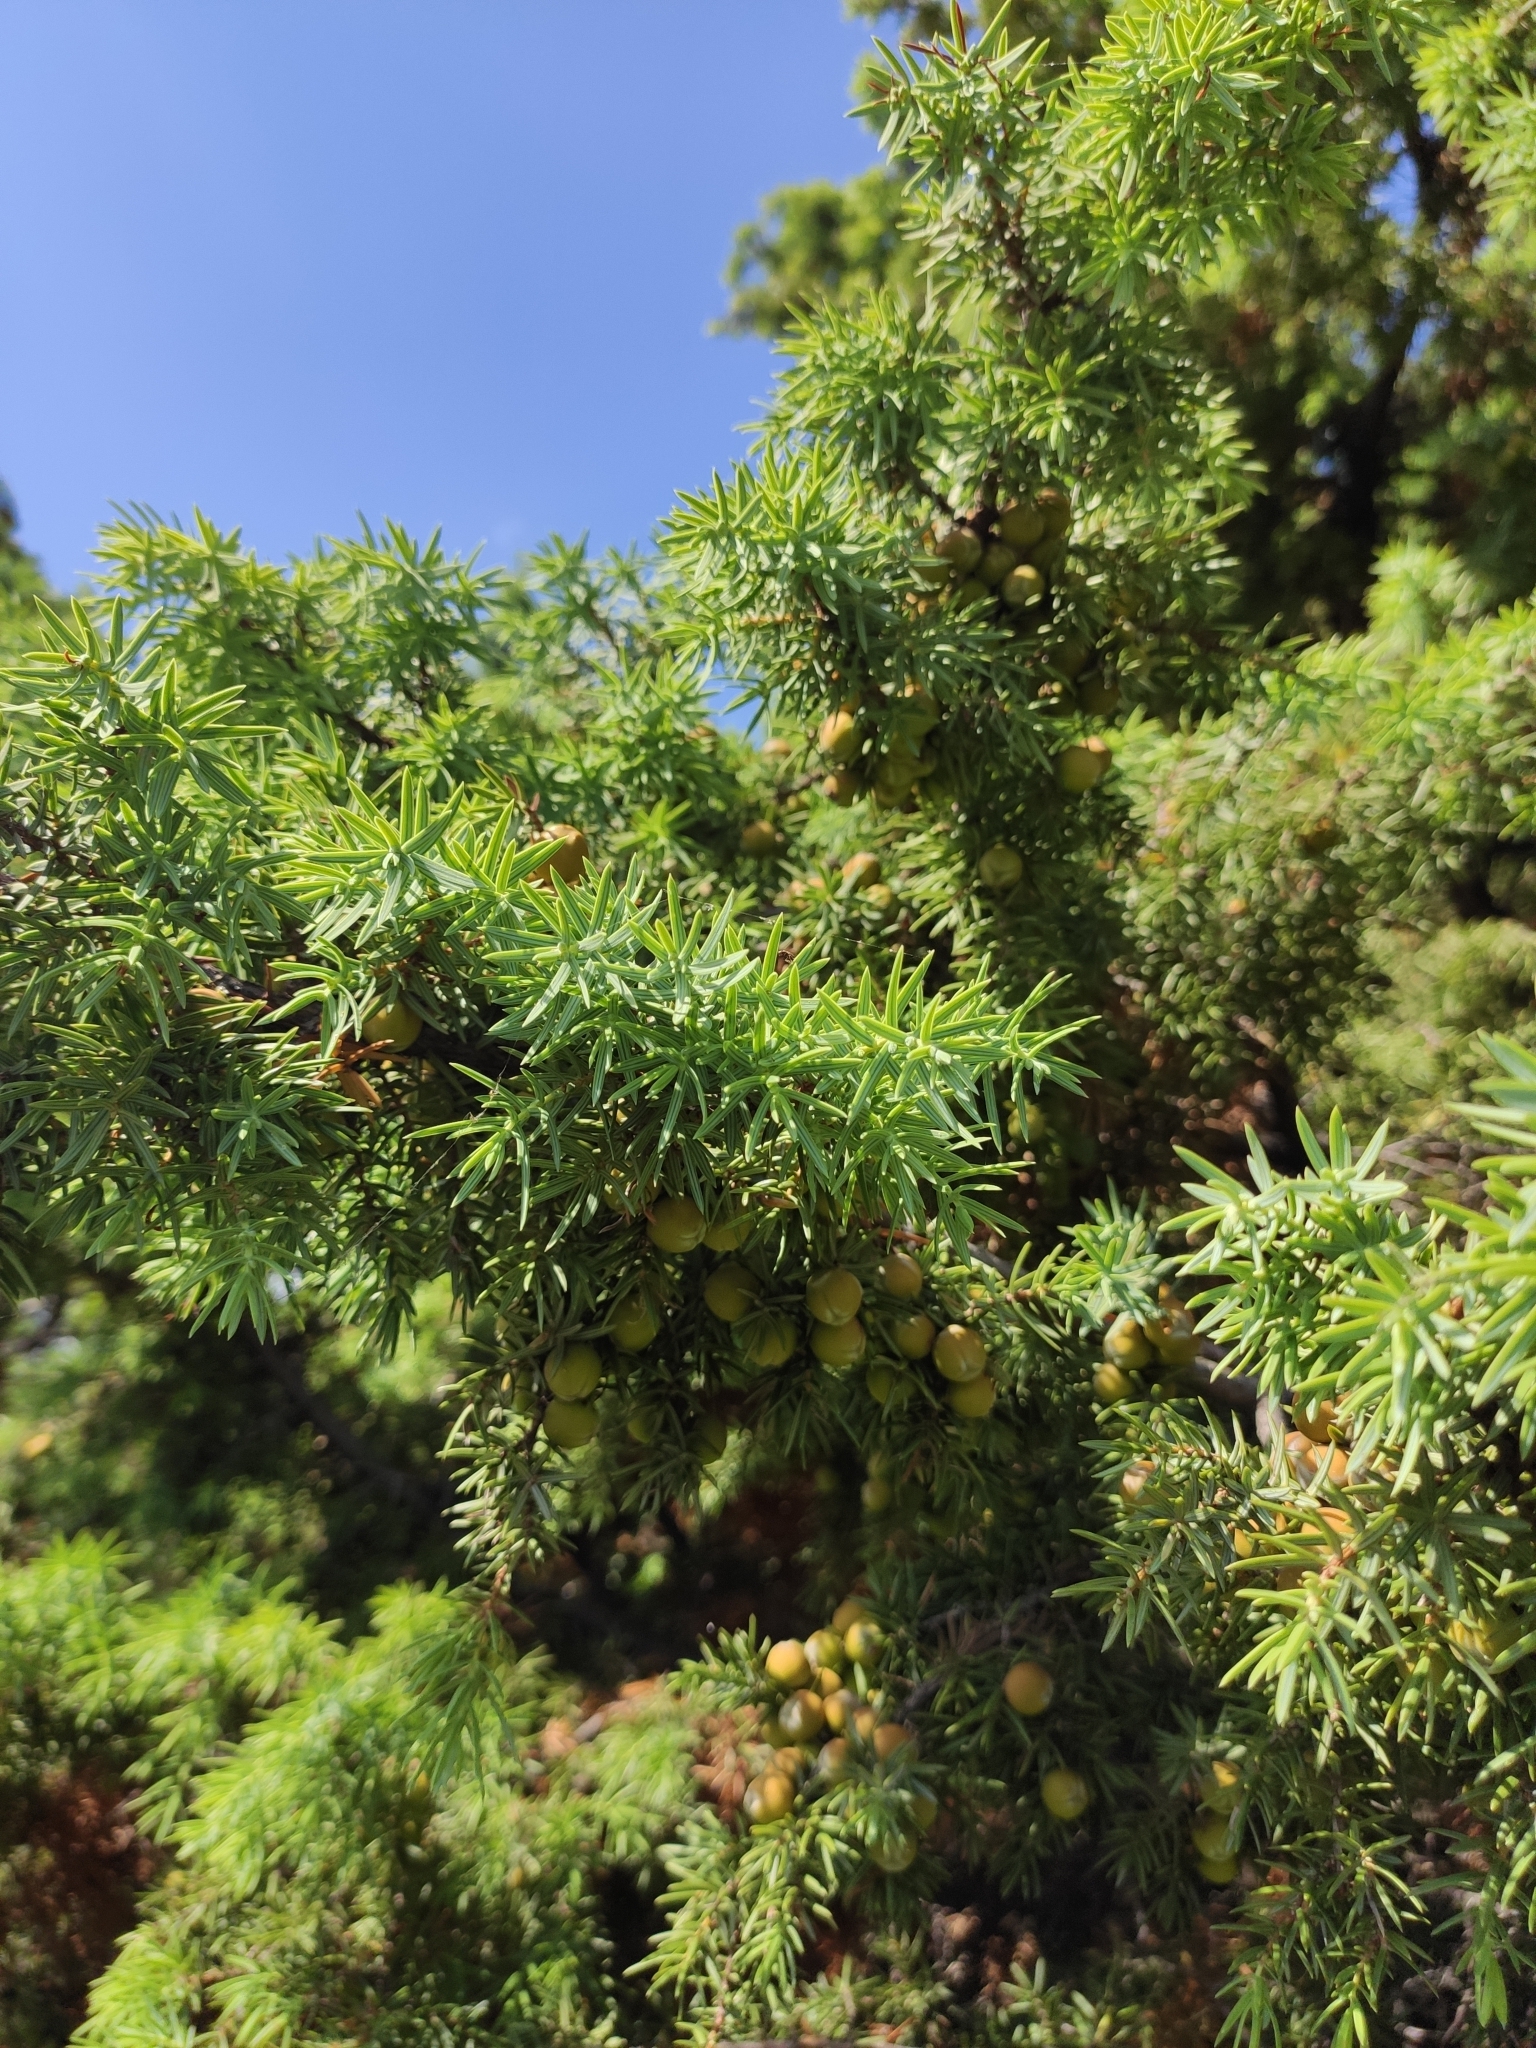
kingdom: Plantae
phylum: Tracheophyta
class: Pinopsida
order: Pinales
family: Cupressaceae
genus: Juniperus
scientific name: Juniperus oxycedrus
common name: Prickly juniper
